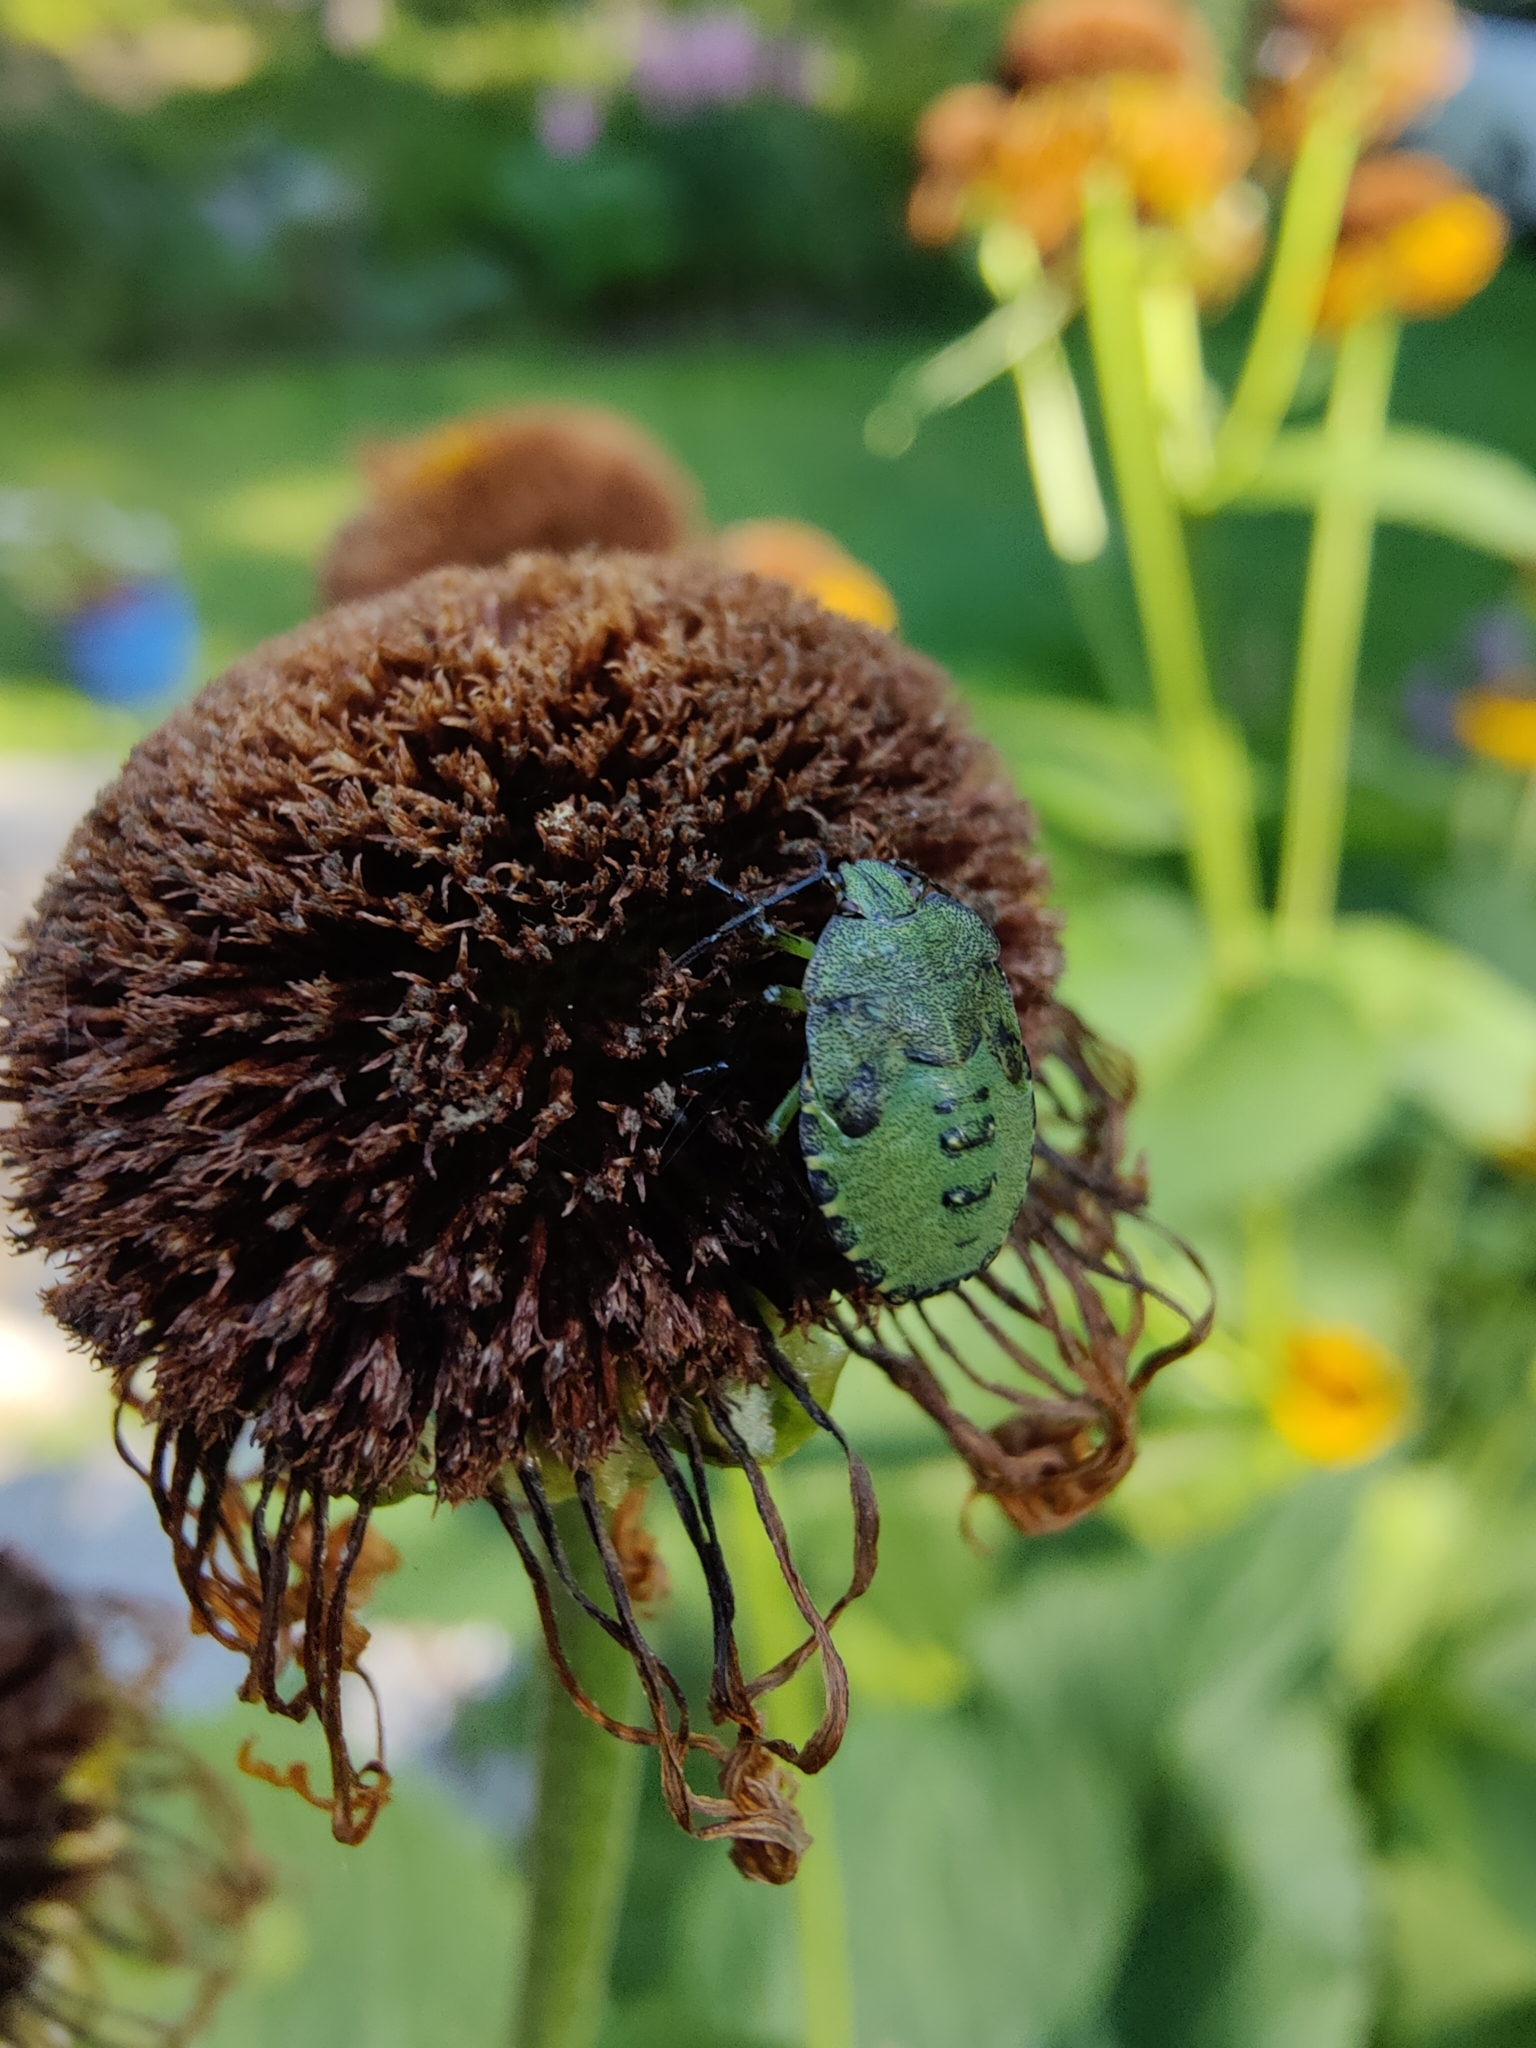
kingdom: Animalia
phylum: Arthropoda
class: Insecta
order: Hemiptera
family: Pentatomidae
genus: Palomena
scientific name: Palomena prasina
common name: Green shieldbug
